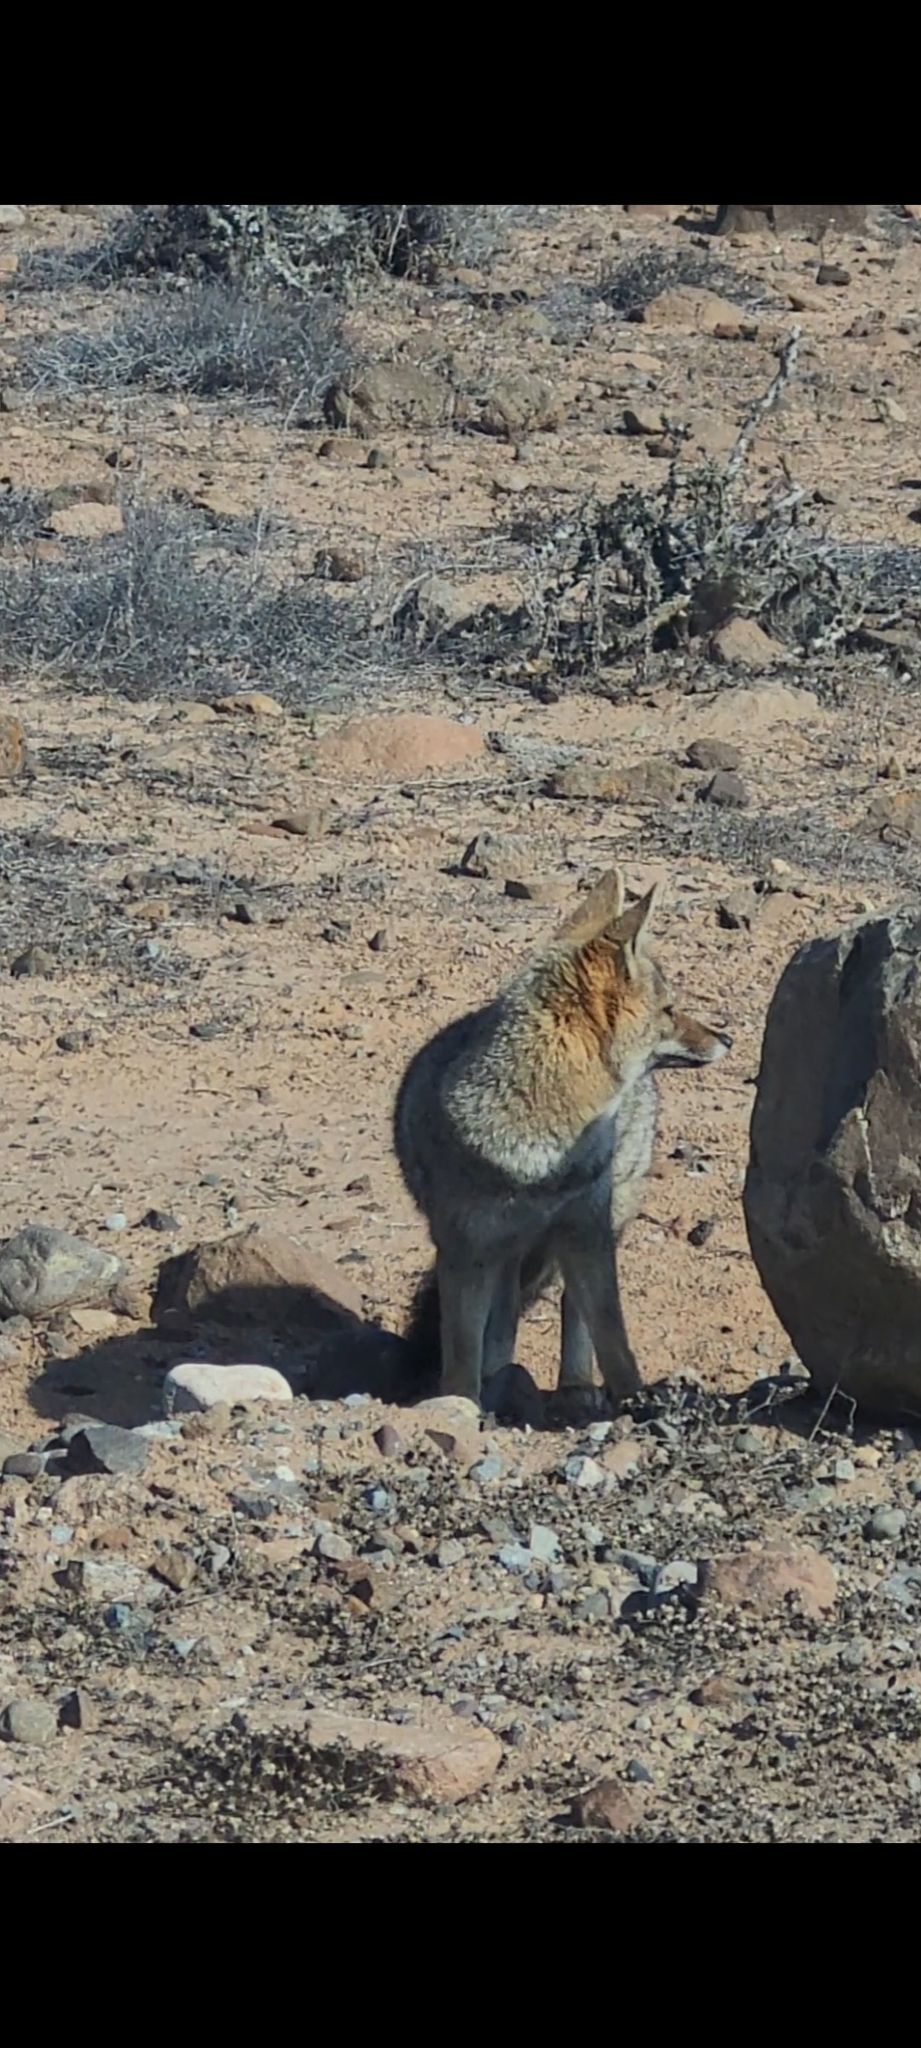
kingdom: Animalia
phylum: Chordata
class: Mammalia
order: Carnivora
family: Canidae
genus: Lycalopex
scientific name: Lycalopex gymnocercus
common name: Pampas fox
